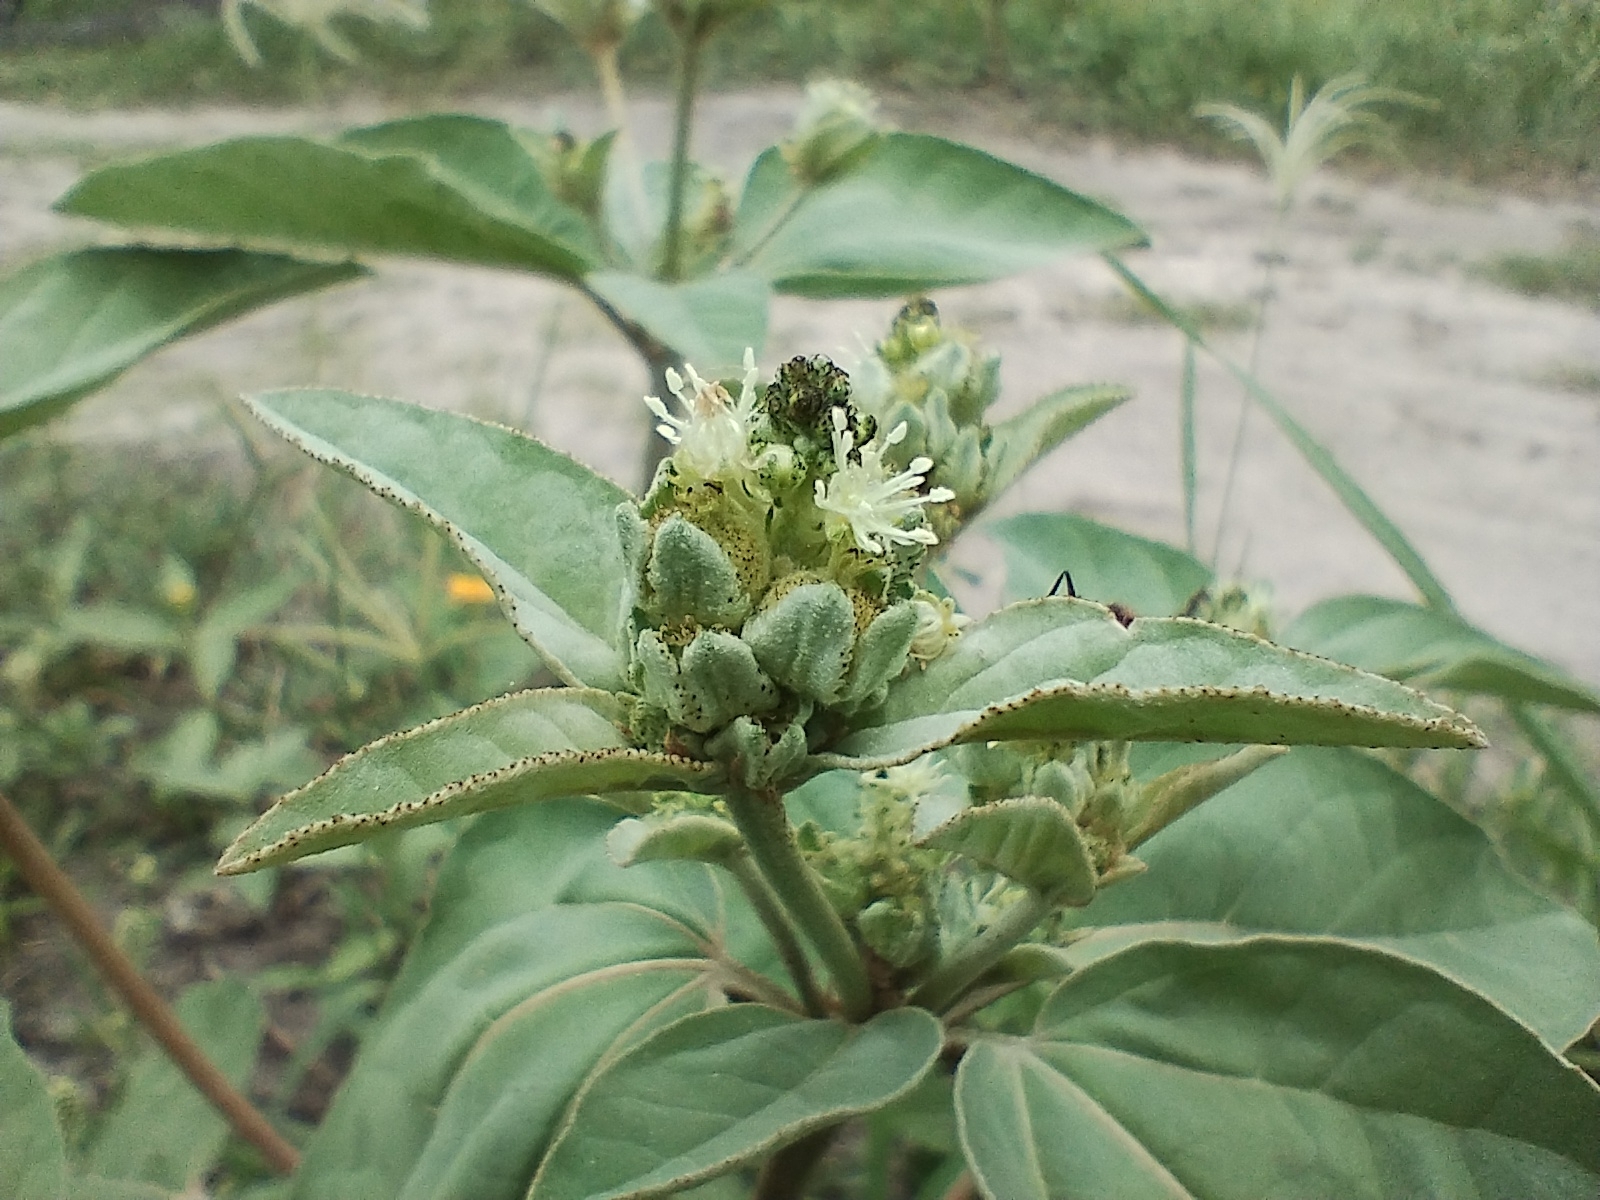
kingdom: Plantae
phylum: Tracheophyta
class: Magnoliopsida
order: Malpighiales
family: Euphorbiaceae
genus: Croton
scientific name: Croton argenteus
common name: Silver july croton
